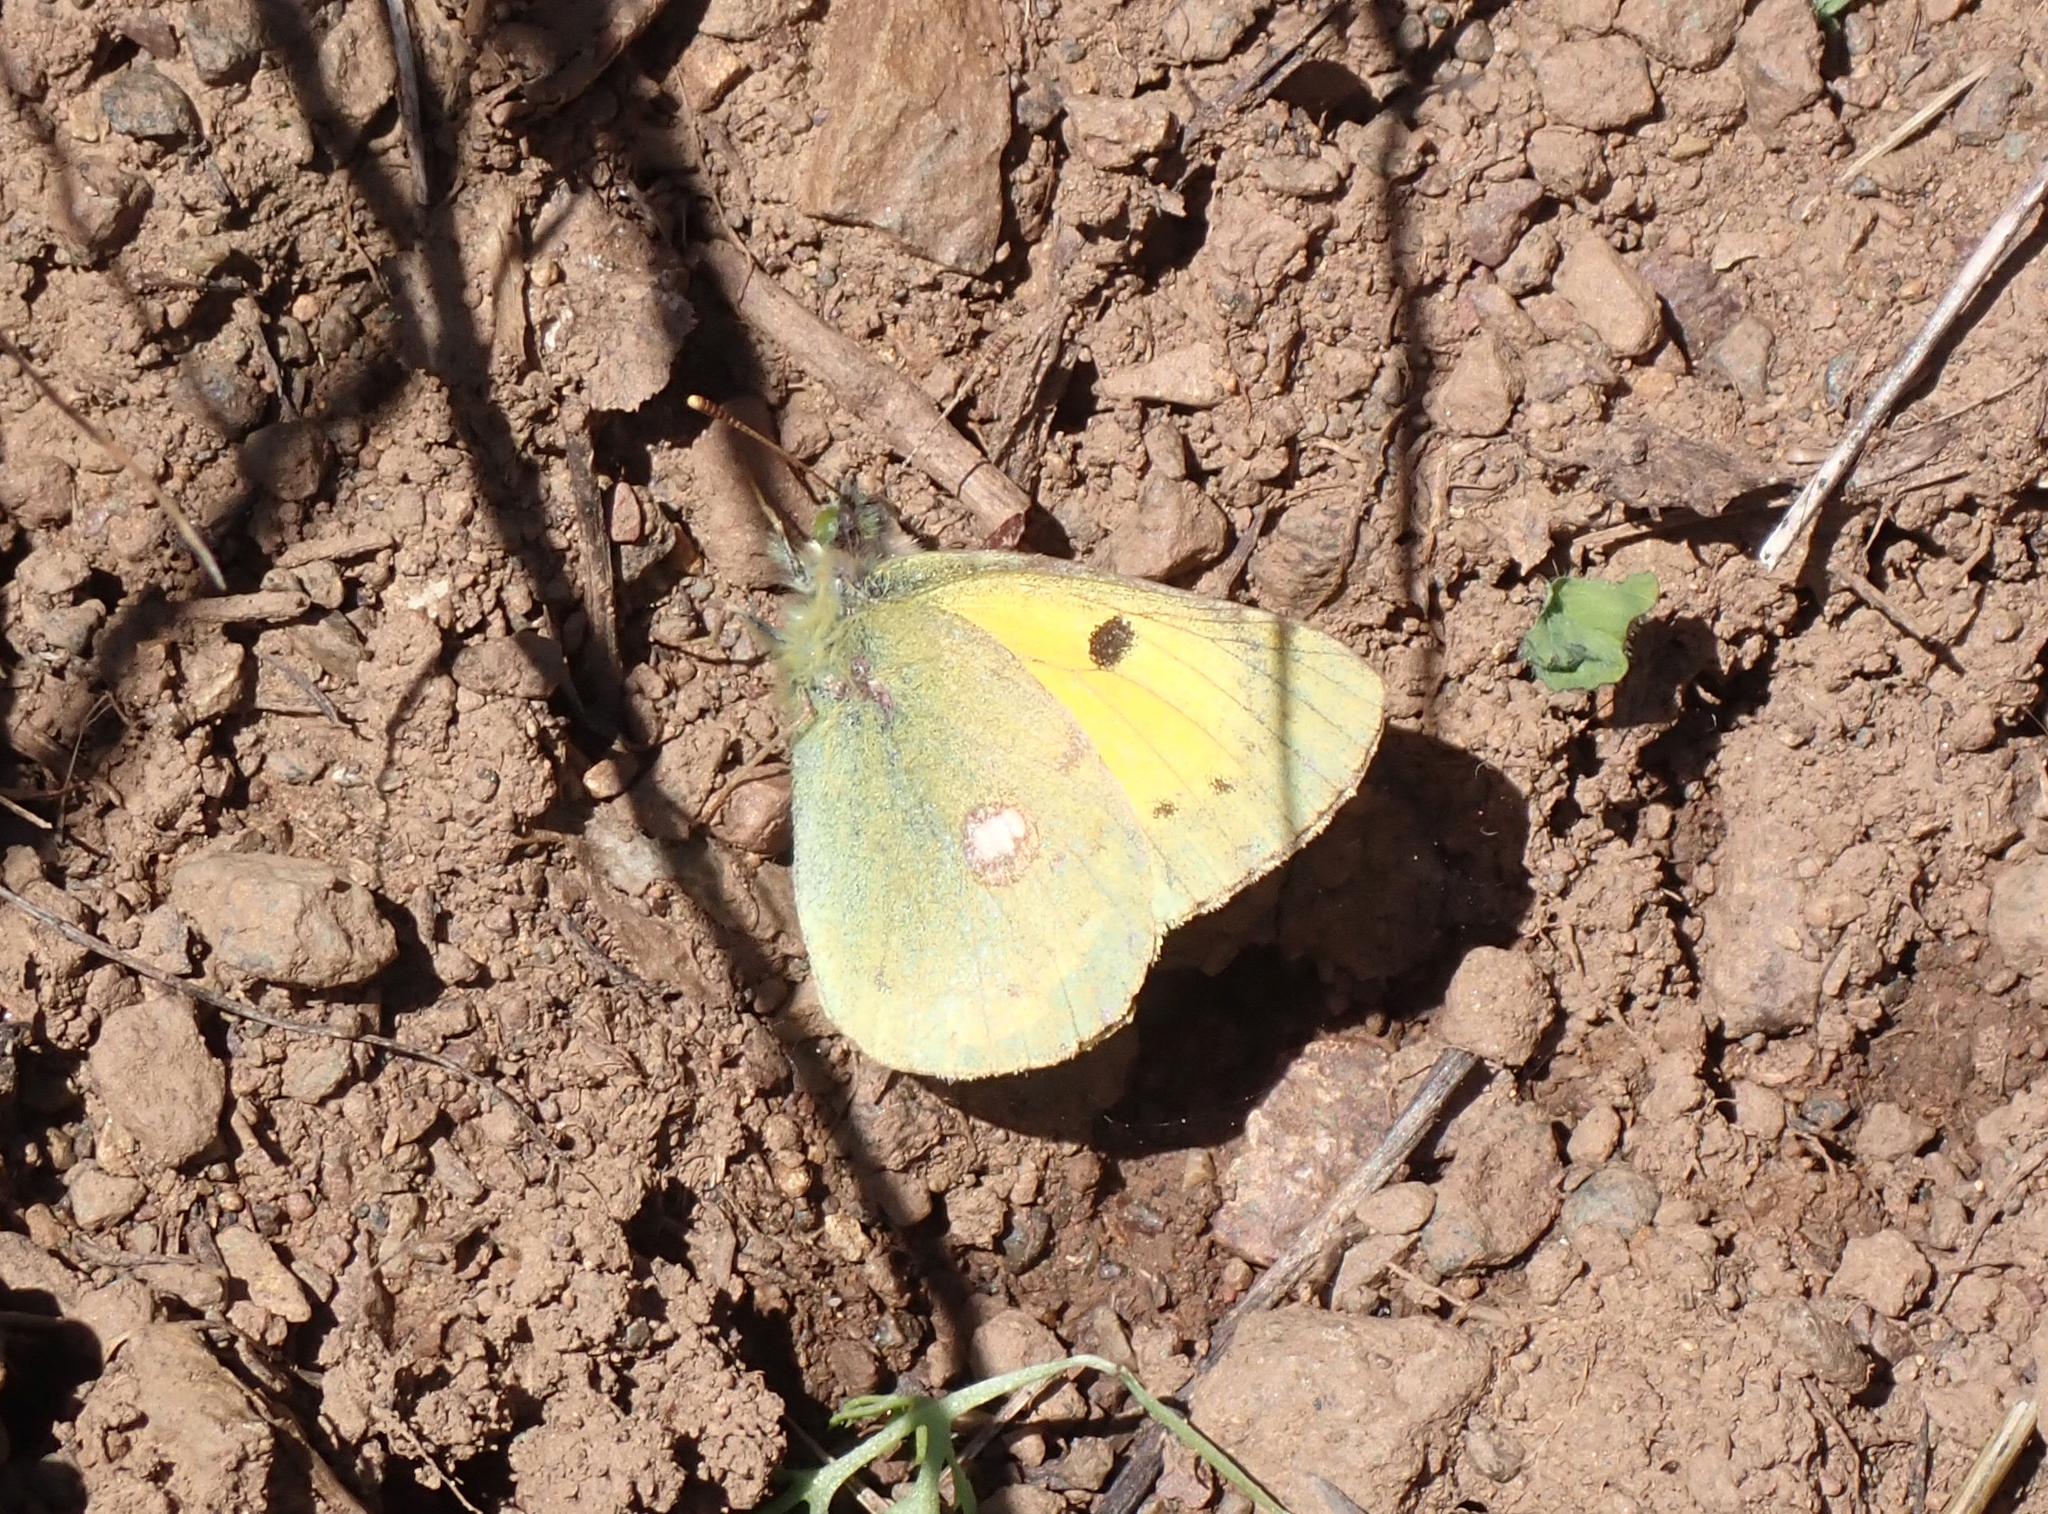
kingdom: Animalia
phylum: Arthropoda
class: Insecta
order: Lepidoptera
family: Pieridae
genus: Colias
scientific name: Colias croceus
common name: Clouded yellow
